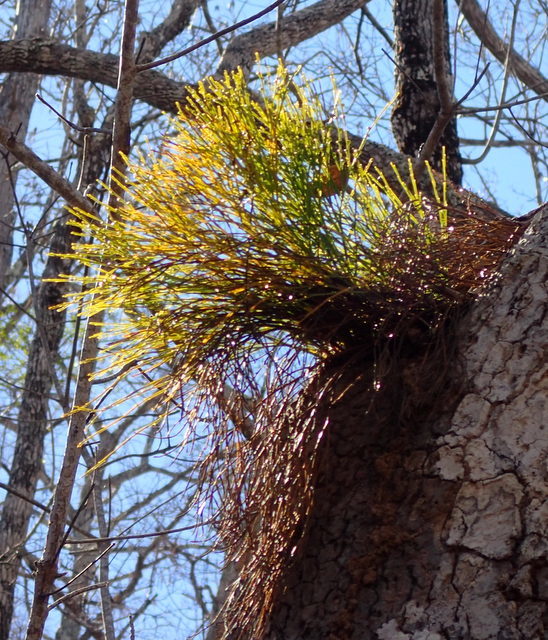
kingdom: Plantae
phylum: Tracheophyta
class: Polypodiopsida
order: Psilotales
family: Psilotaceae
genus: Psilotum
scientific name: Psilotum nudum
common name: Skeleton fork fern
